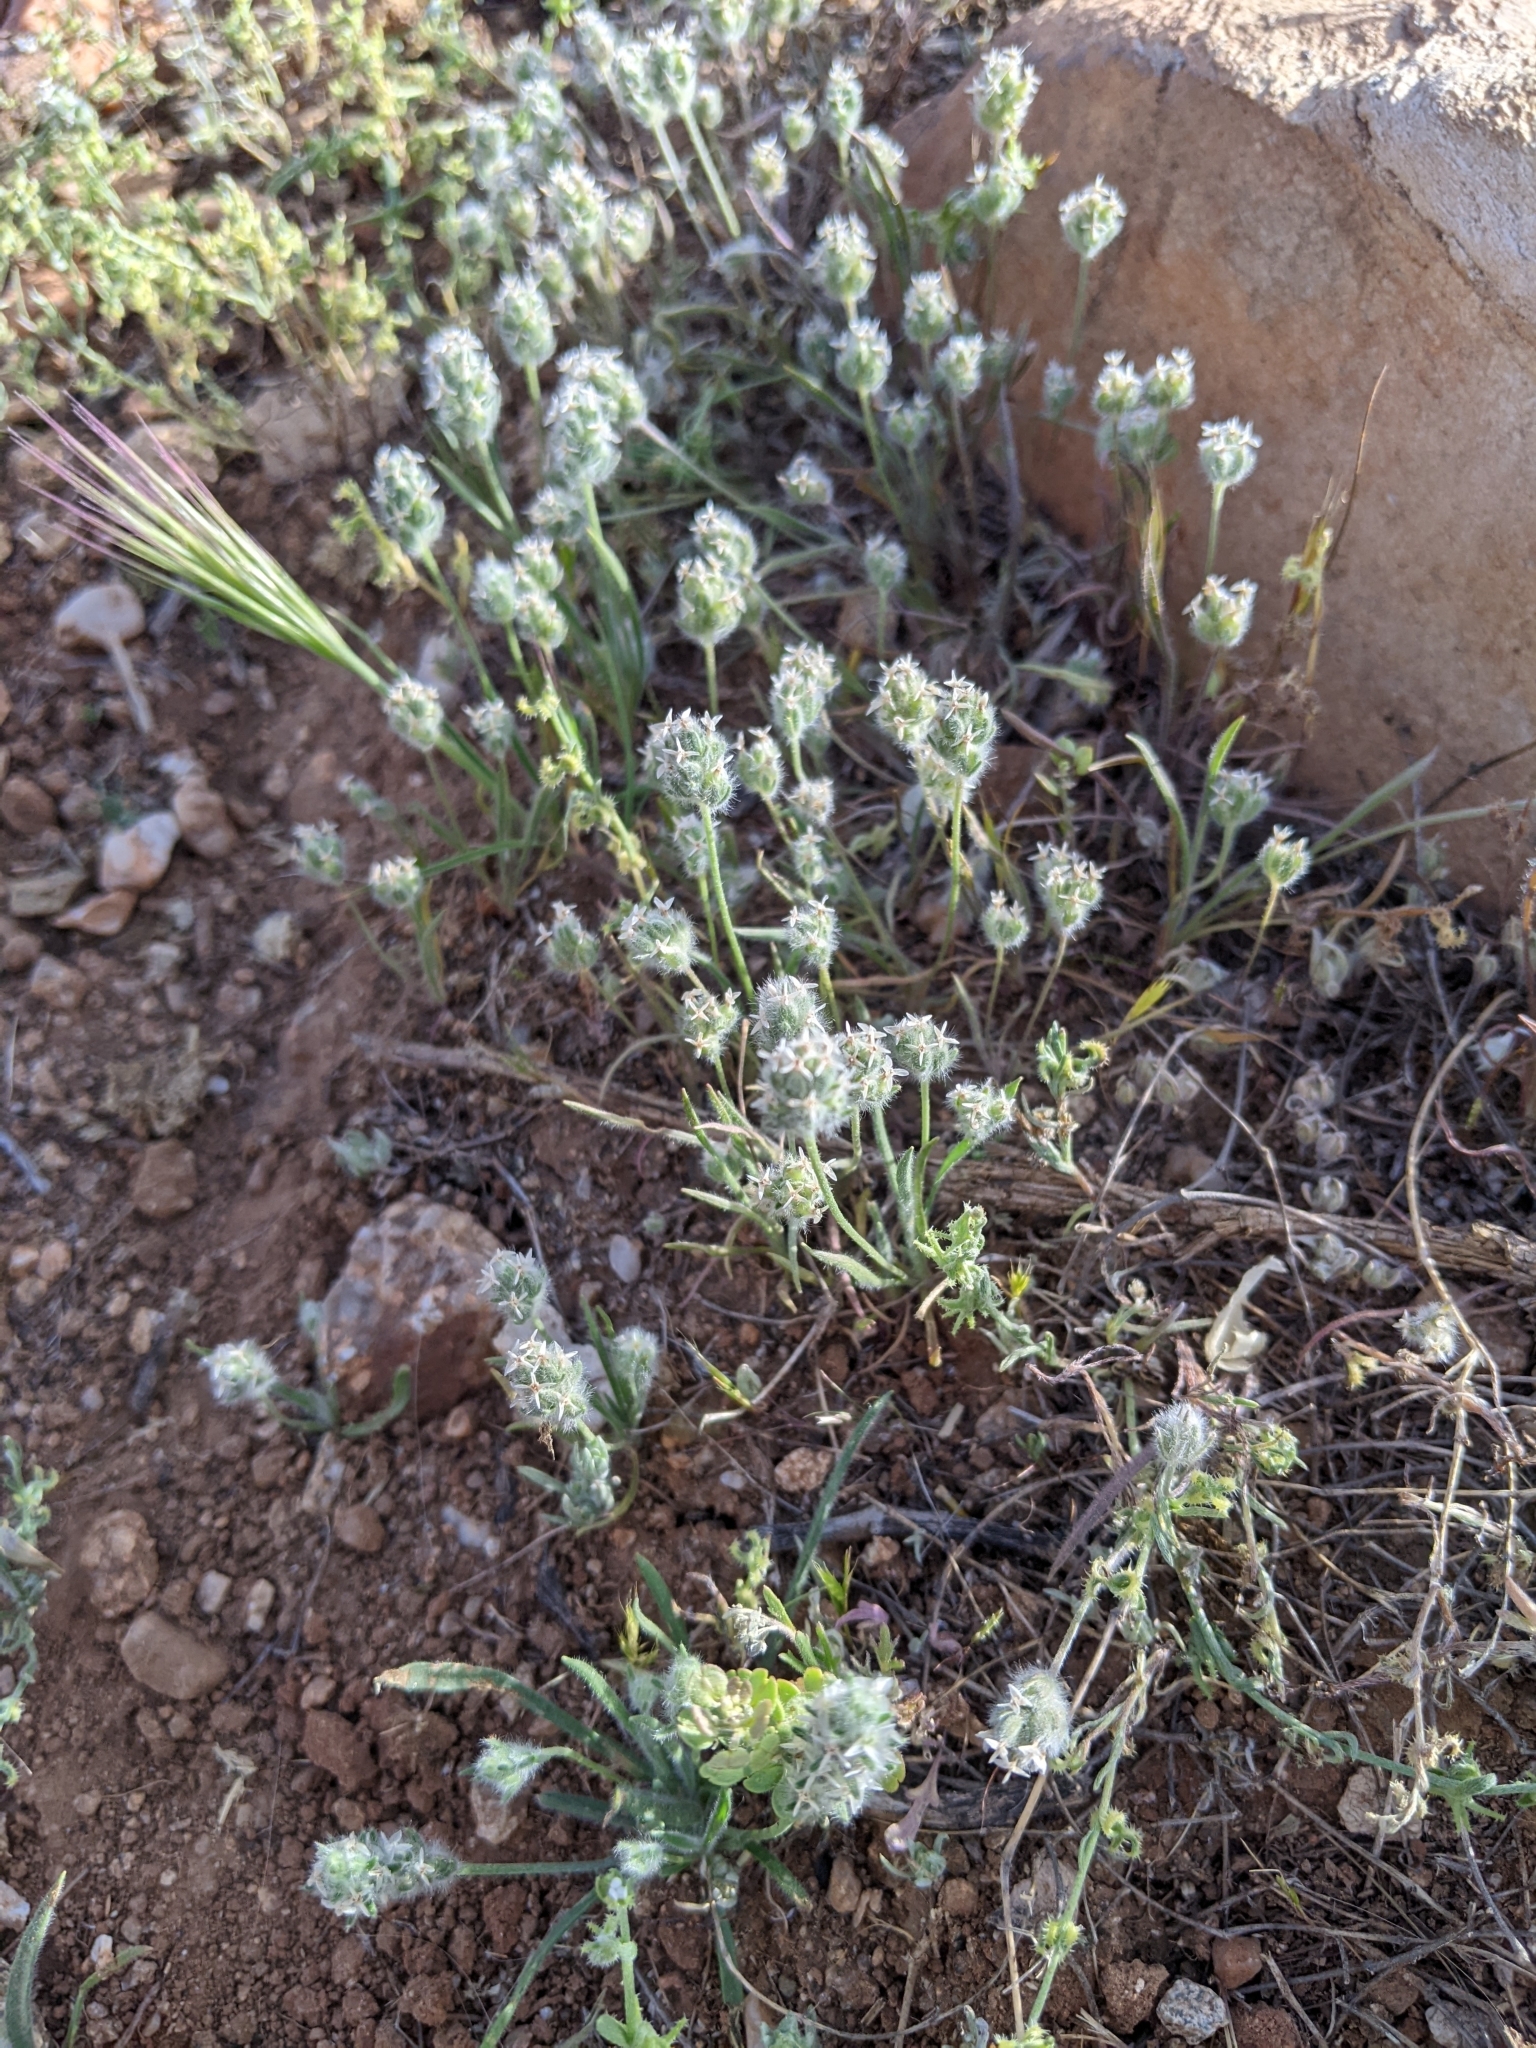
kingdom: Plantae
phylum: Tracheophyta
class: Magnoliopsida
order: Lamiales
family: Plantaginaceae
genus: Plantago
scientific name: Plantago patagonica
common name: Patagonia indian-wheat
